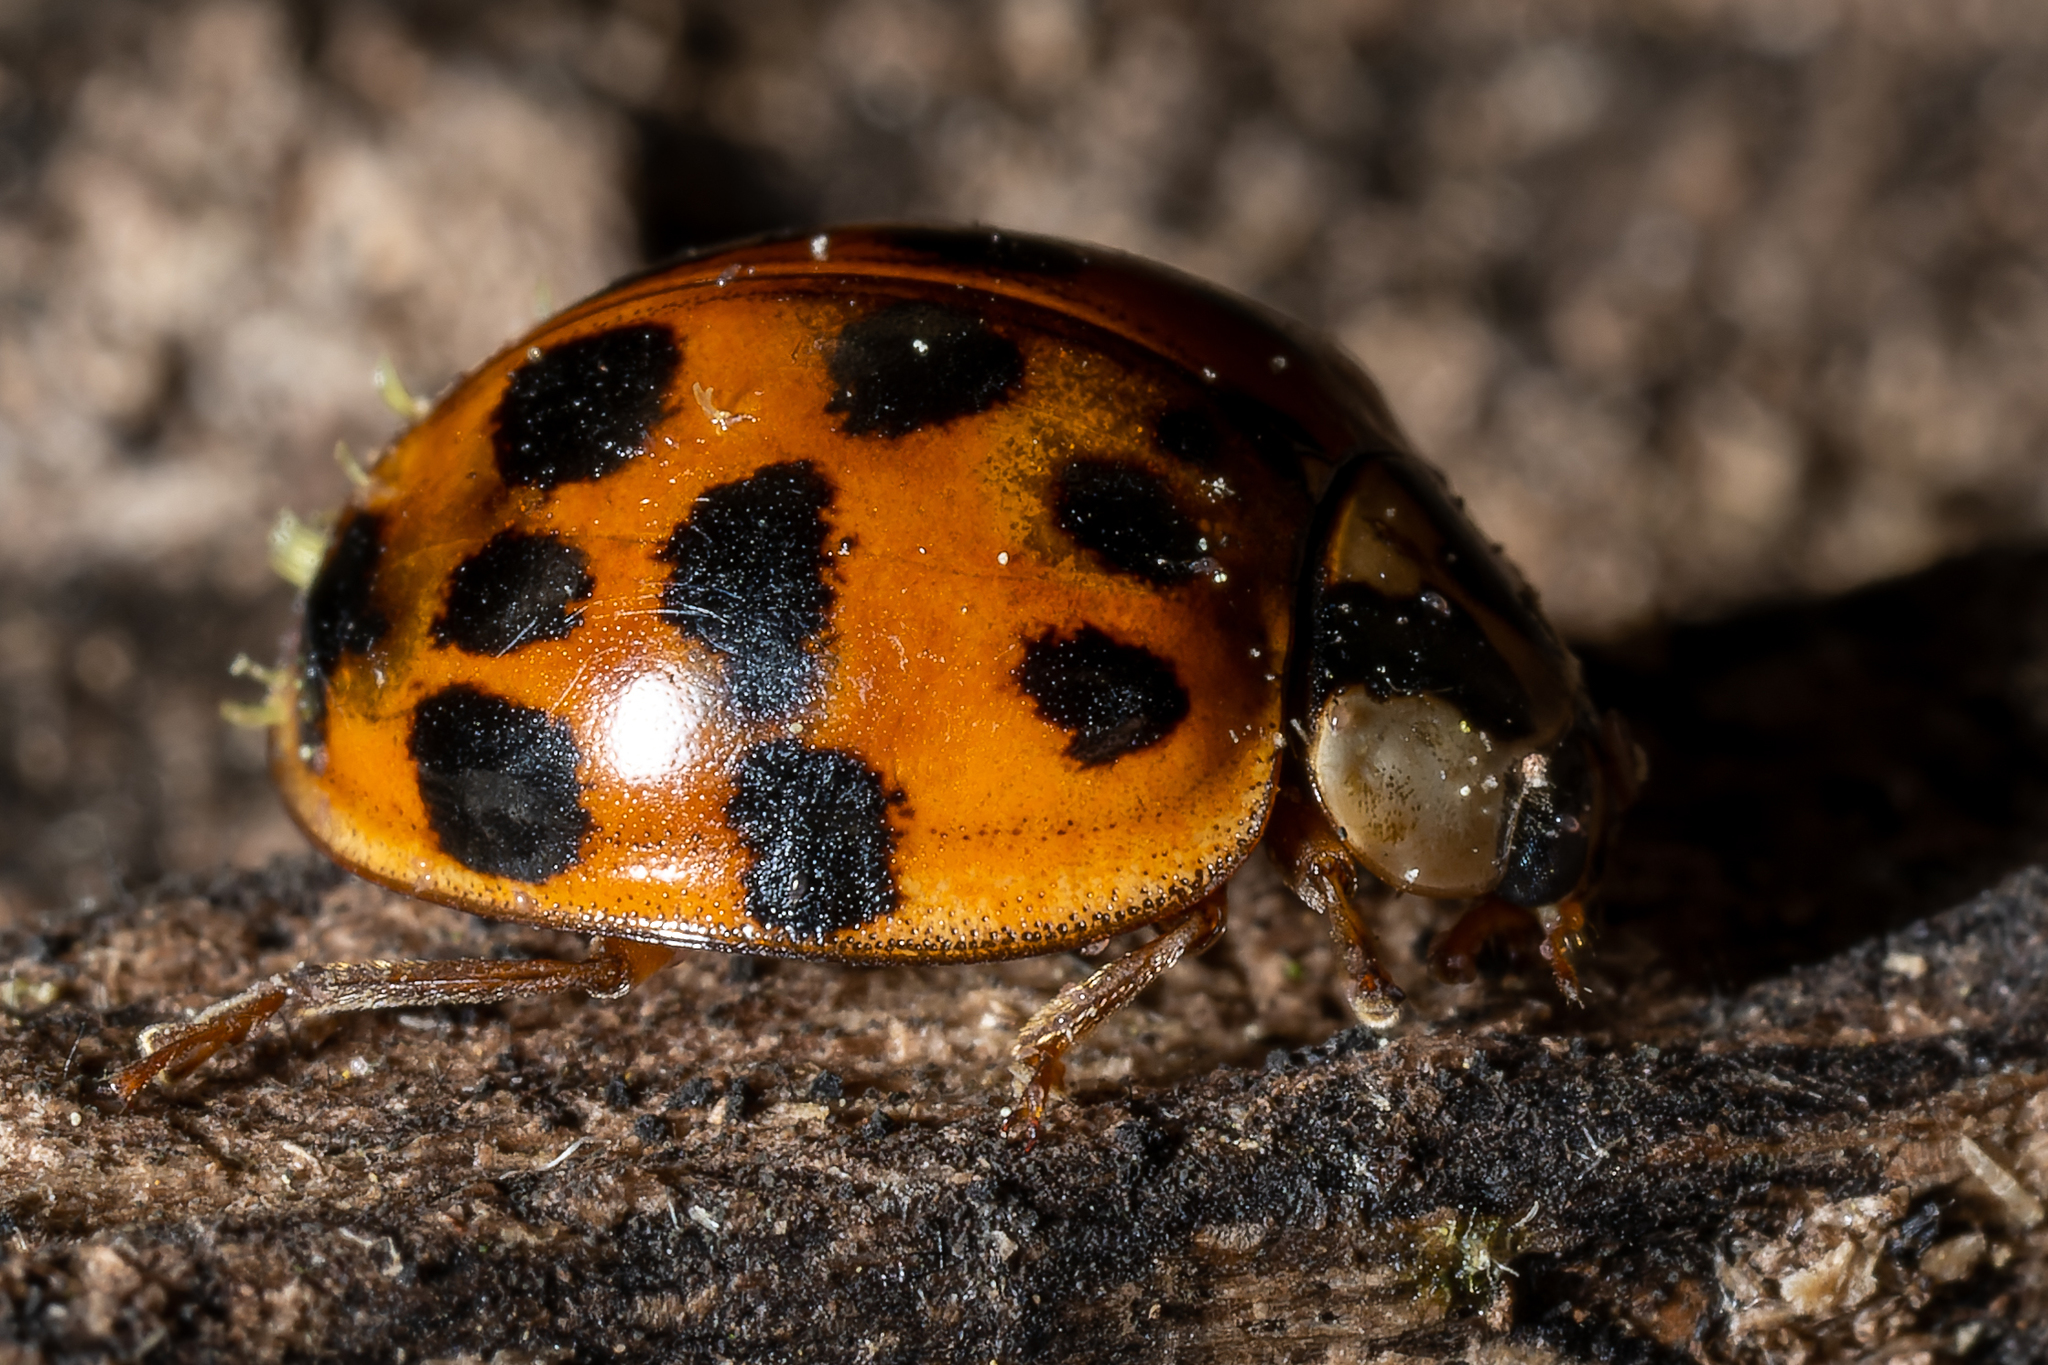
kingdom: Animalia
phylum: Arthropoda
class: Insecta
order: Coleoptera
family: Coccinellidae
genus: Harmonia
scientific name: Harmonia axyridis
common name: Harlequin ladybird
